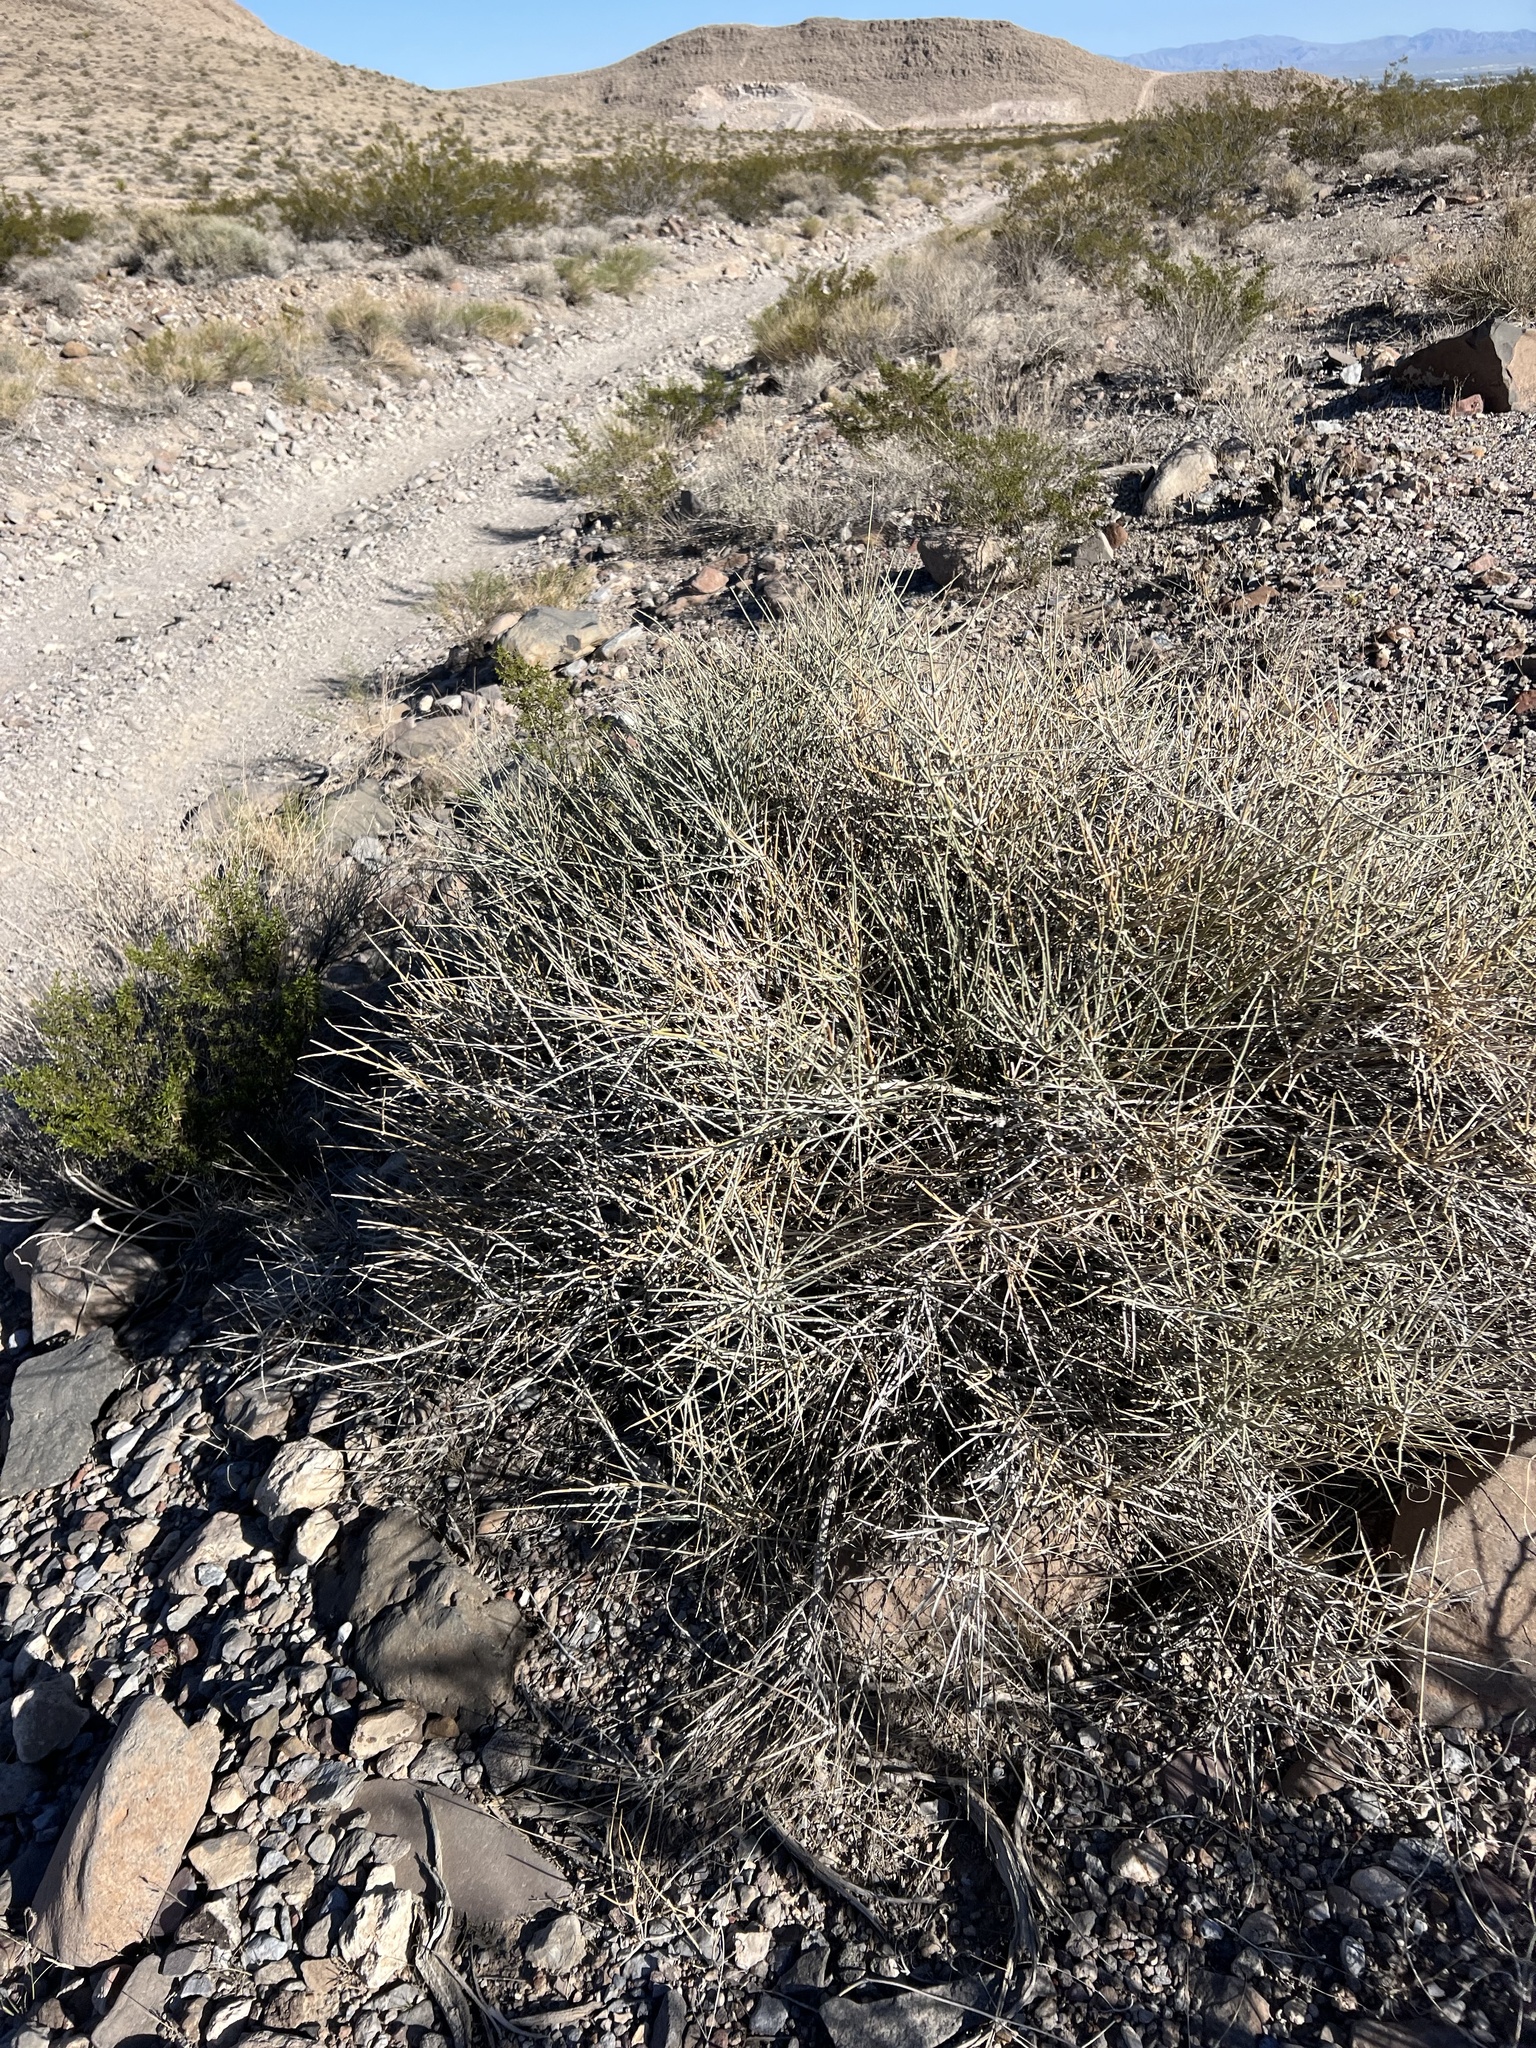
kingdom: Plantae
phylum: Tracheophyta
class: Gnetopsida
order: Ephedrales
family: Ephedraceae
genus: Ephedra
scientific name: Ephedra nevadensis
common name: Gray ephedra
